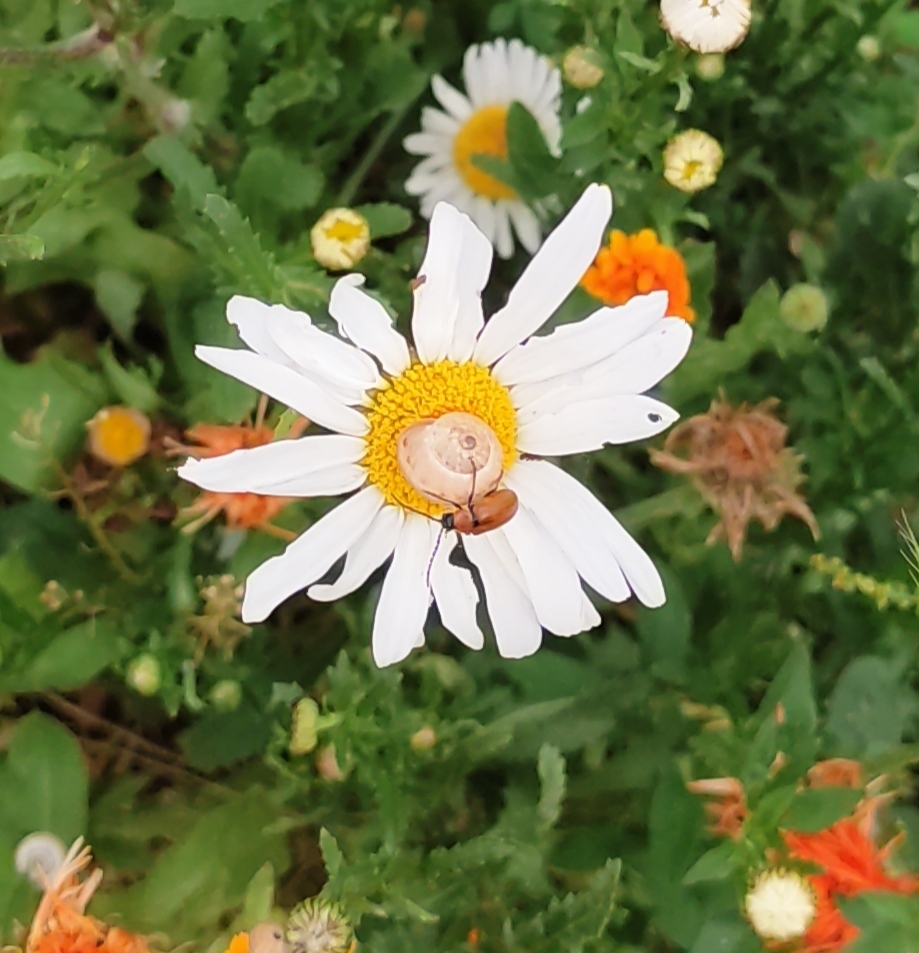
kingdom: Animalia
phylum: Arthropoda
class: Insecta
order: Coleoptera
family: Chrysomelidae
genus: Exosoma
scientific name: Exosoma lusitanicum
